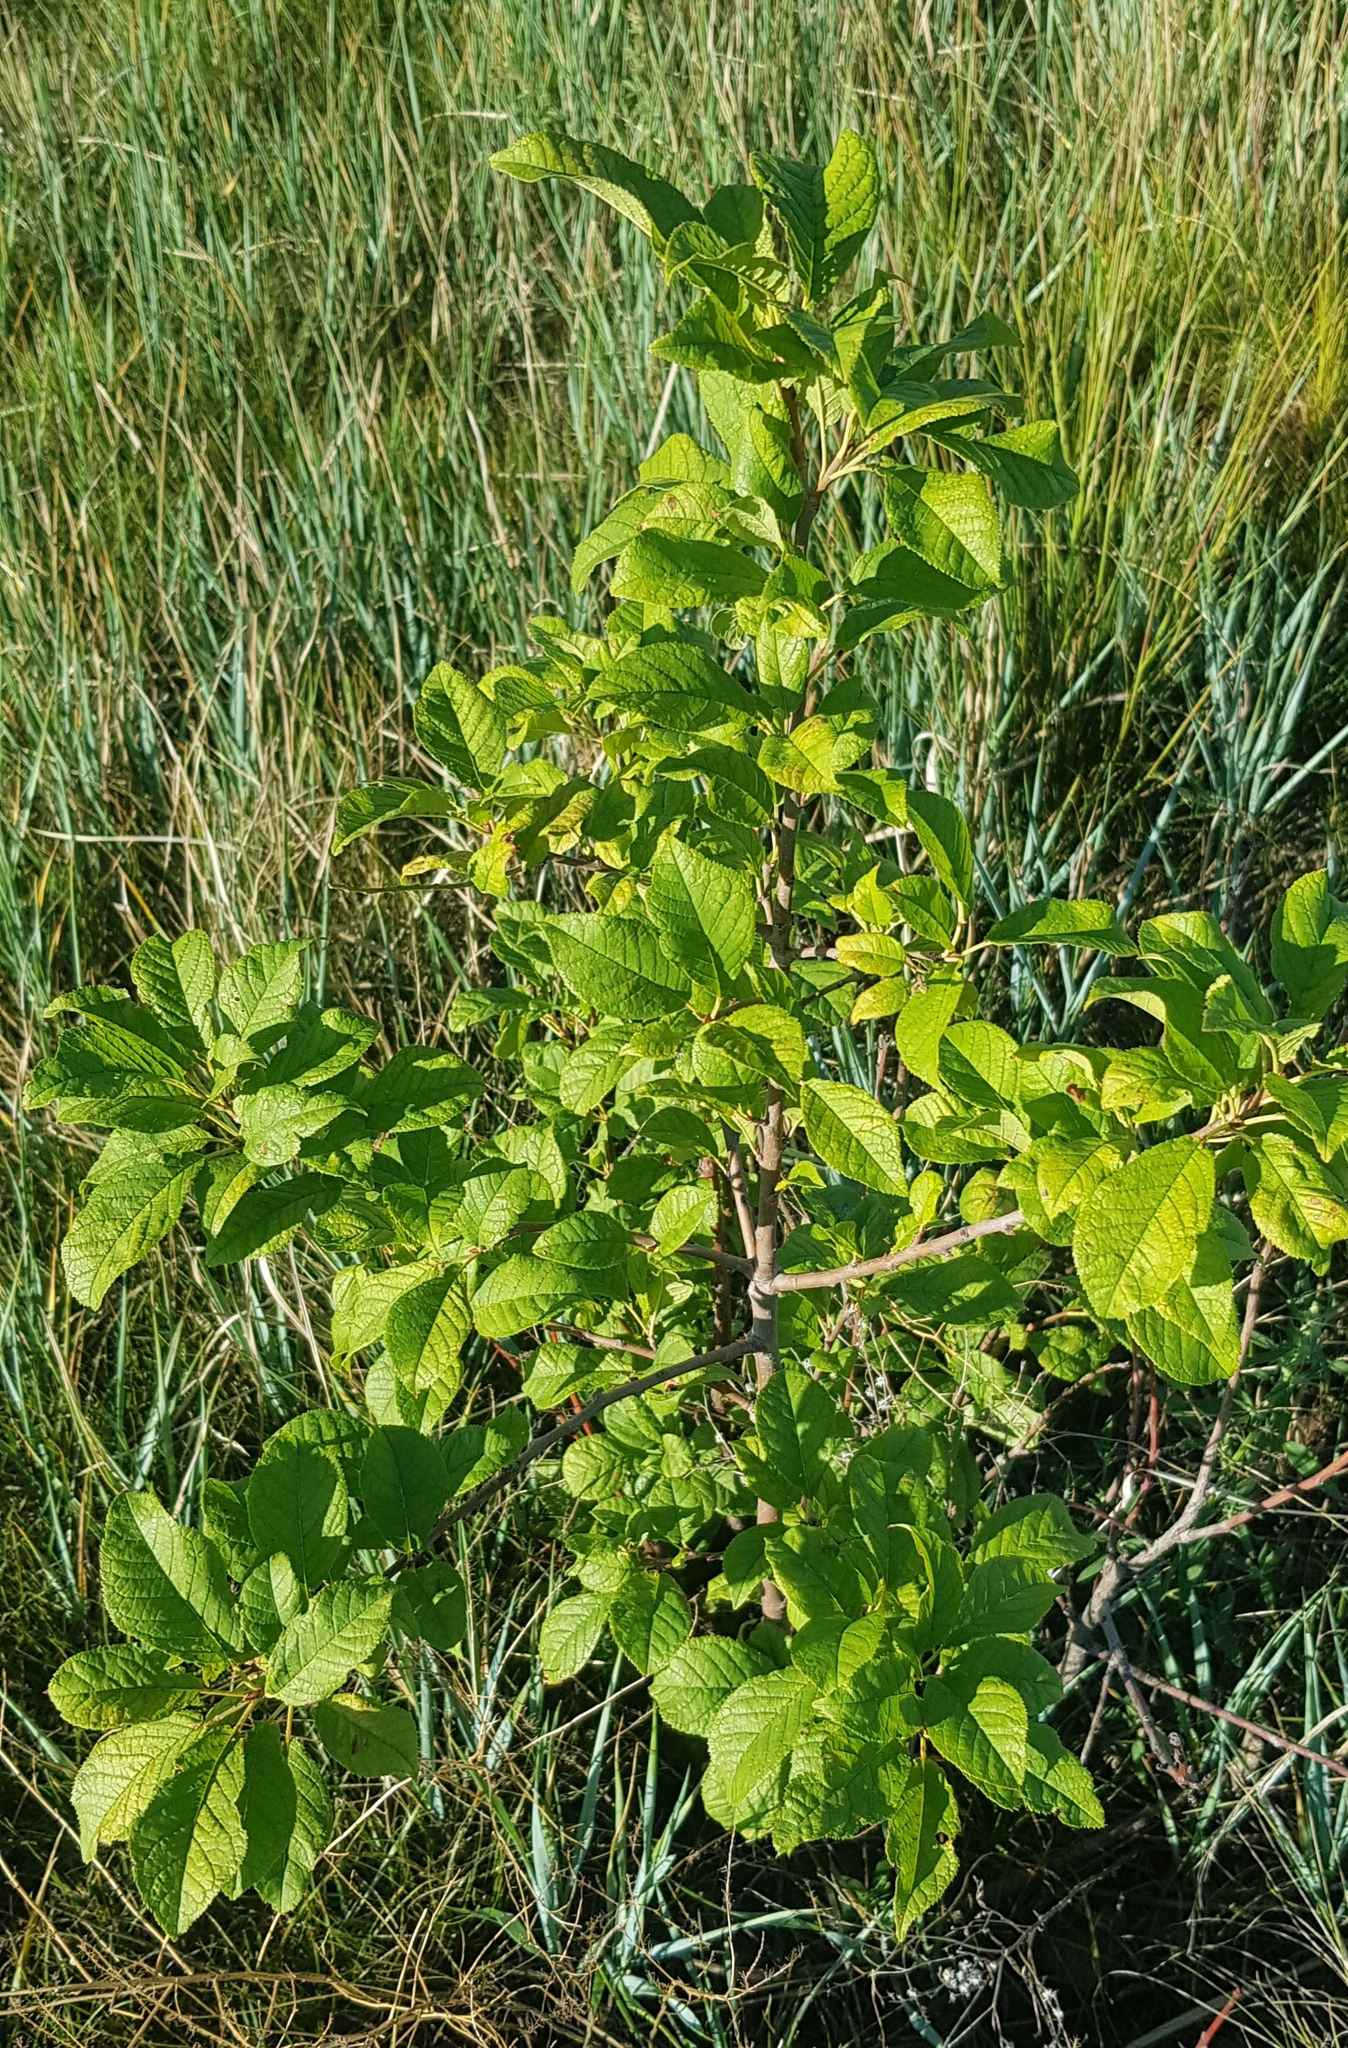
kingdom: Plantae
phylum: Tracheophyta
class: Magnoliopsida
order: Rosales
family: Rosaceae
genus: Prunus
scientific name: Prunus padus
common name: Bird cherry
